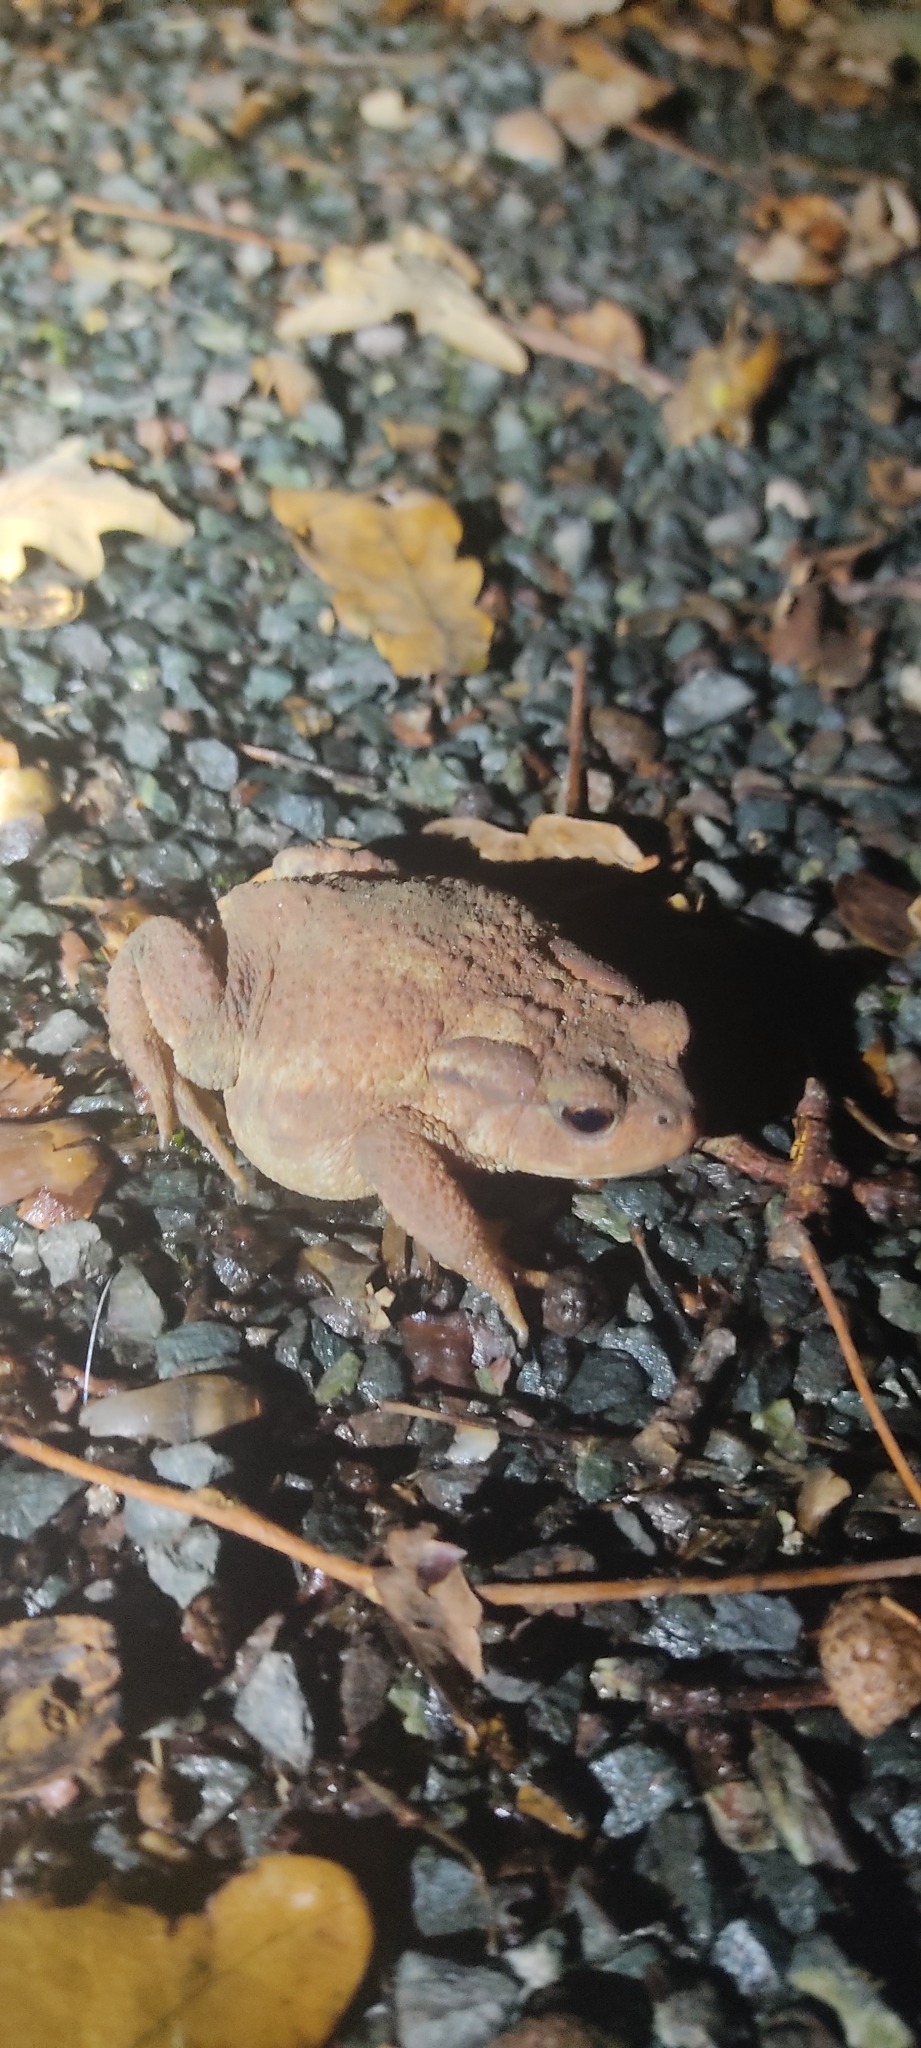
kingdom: Animalia
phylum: Chordata
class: Amphibia
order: Anura
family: Bufonidae
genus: Bufo
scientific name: Bufo spinosus
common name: Western common toad
